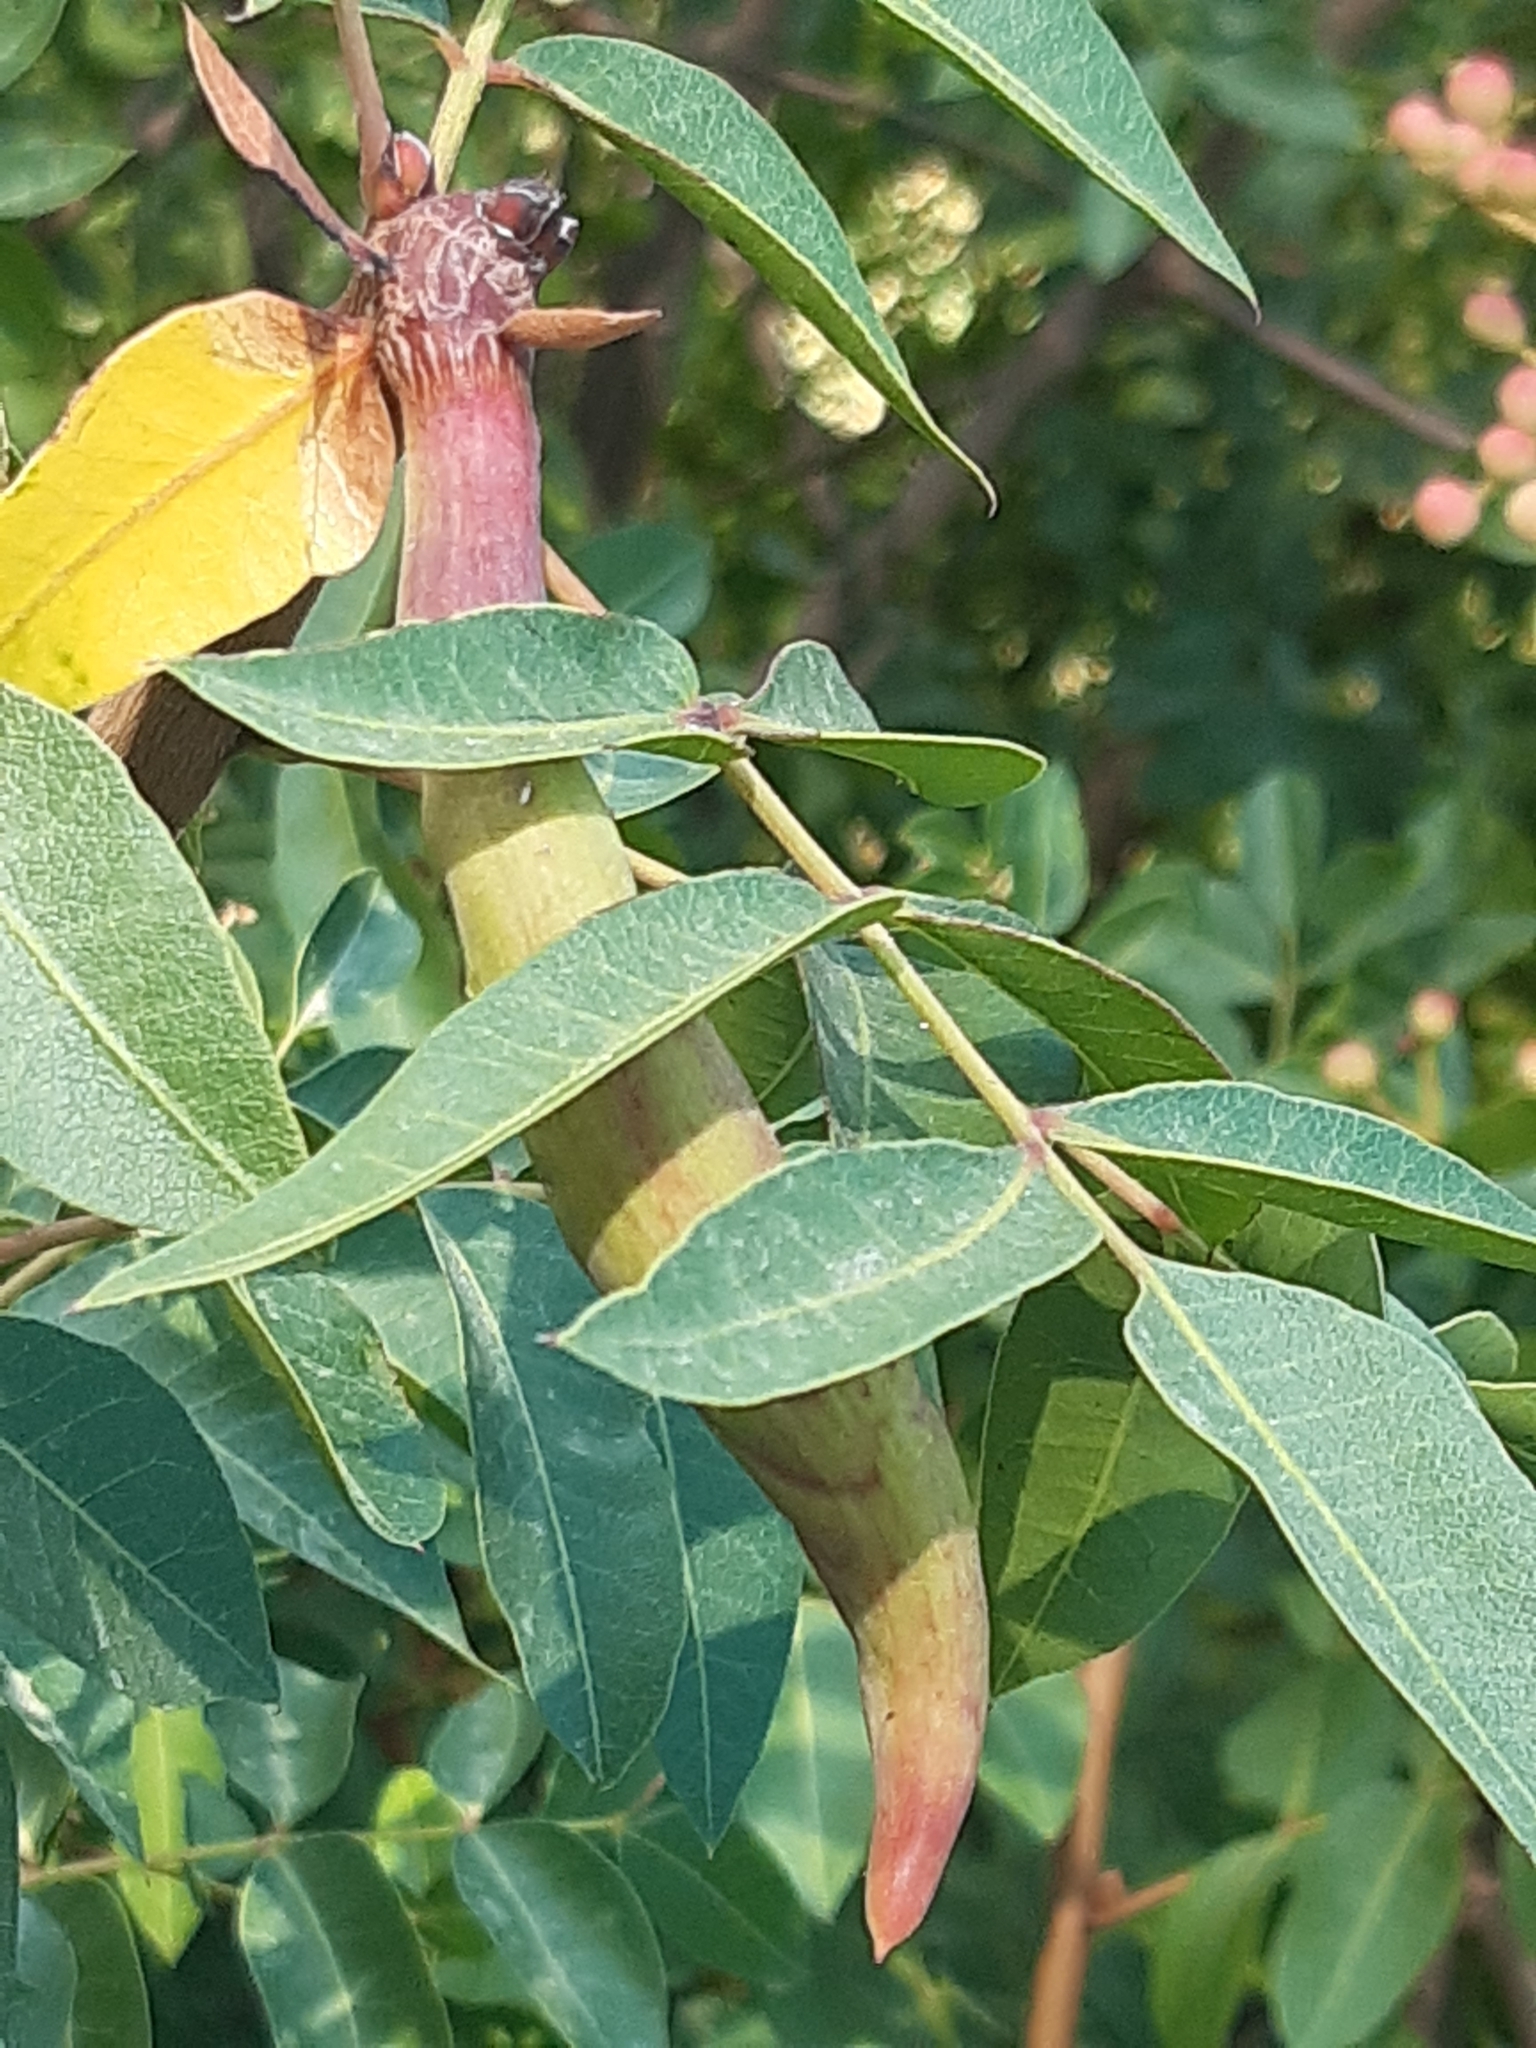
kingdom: Animalia
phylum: Arthropoda
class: Insecta
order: Hemiptera
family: Aphididae
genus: Baizongia
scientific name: Baizongia pistaciae
